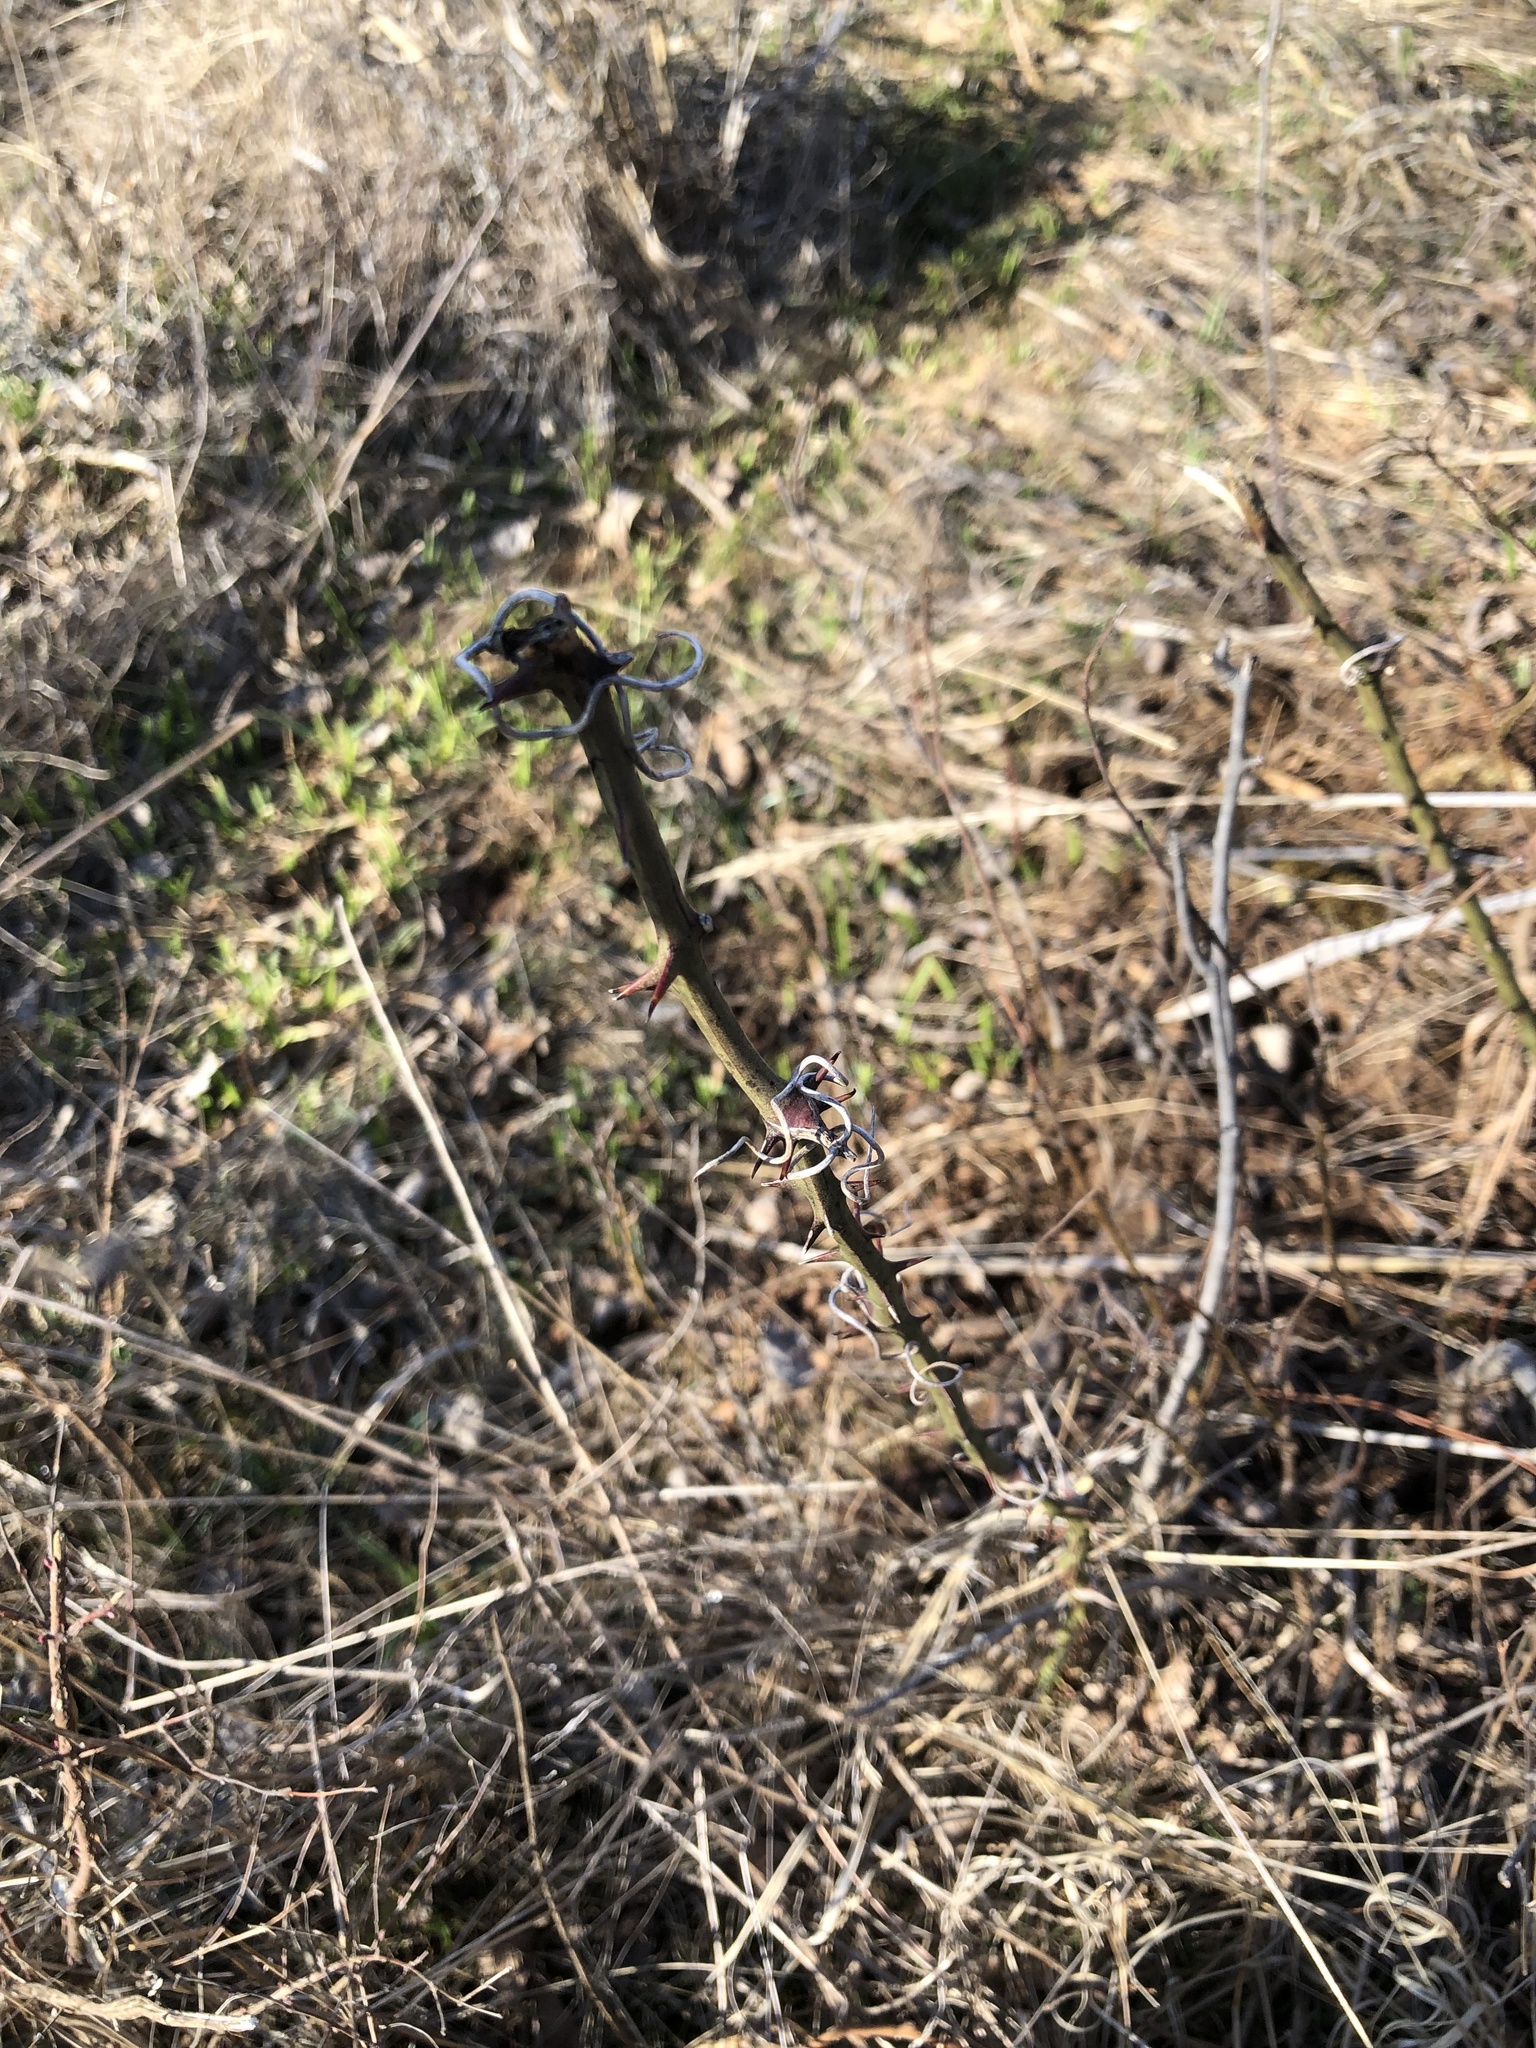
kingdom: Plantae
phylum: Tracheophyta
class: Liliopsida
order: Liliales
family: Smilacaceae
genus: Smilax
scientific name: Smilax bona-nox
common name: Catbrier
